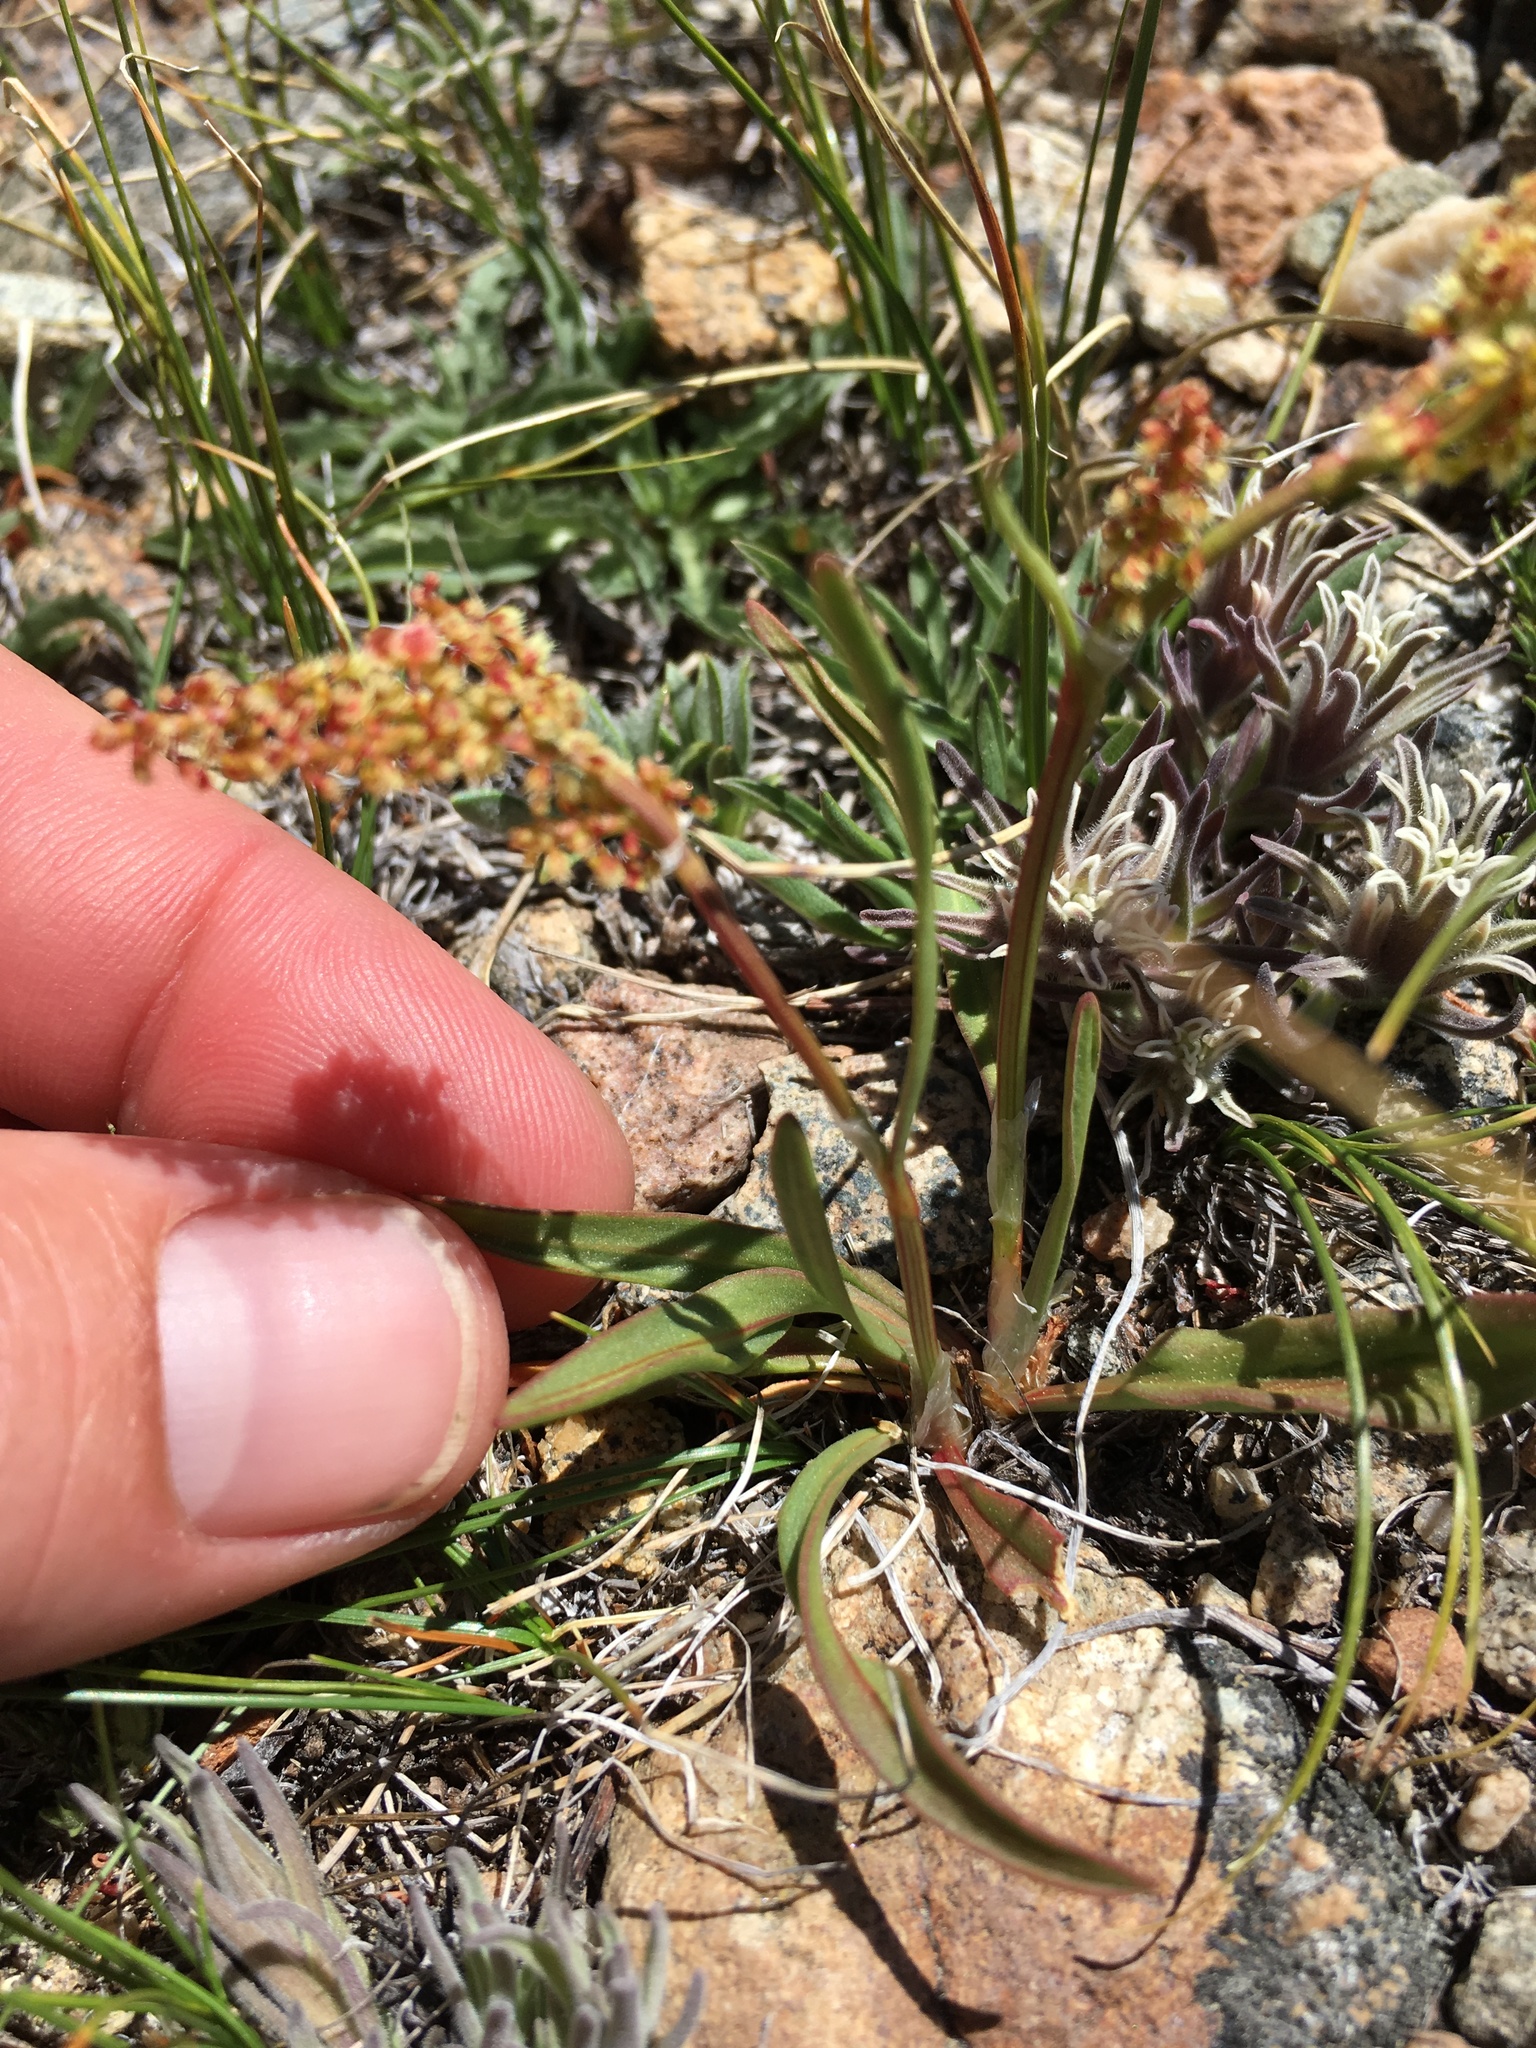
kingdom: Plantae
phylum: Tracheophyta
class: Magnoliopsida
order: Caryophyllales
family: Polygonaceae
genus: Rumex
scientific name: Rumex paucifolius
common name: Alpine sheep sorrel
